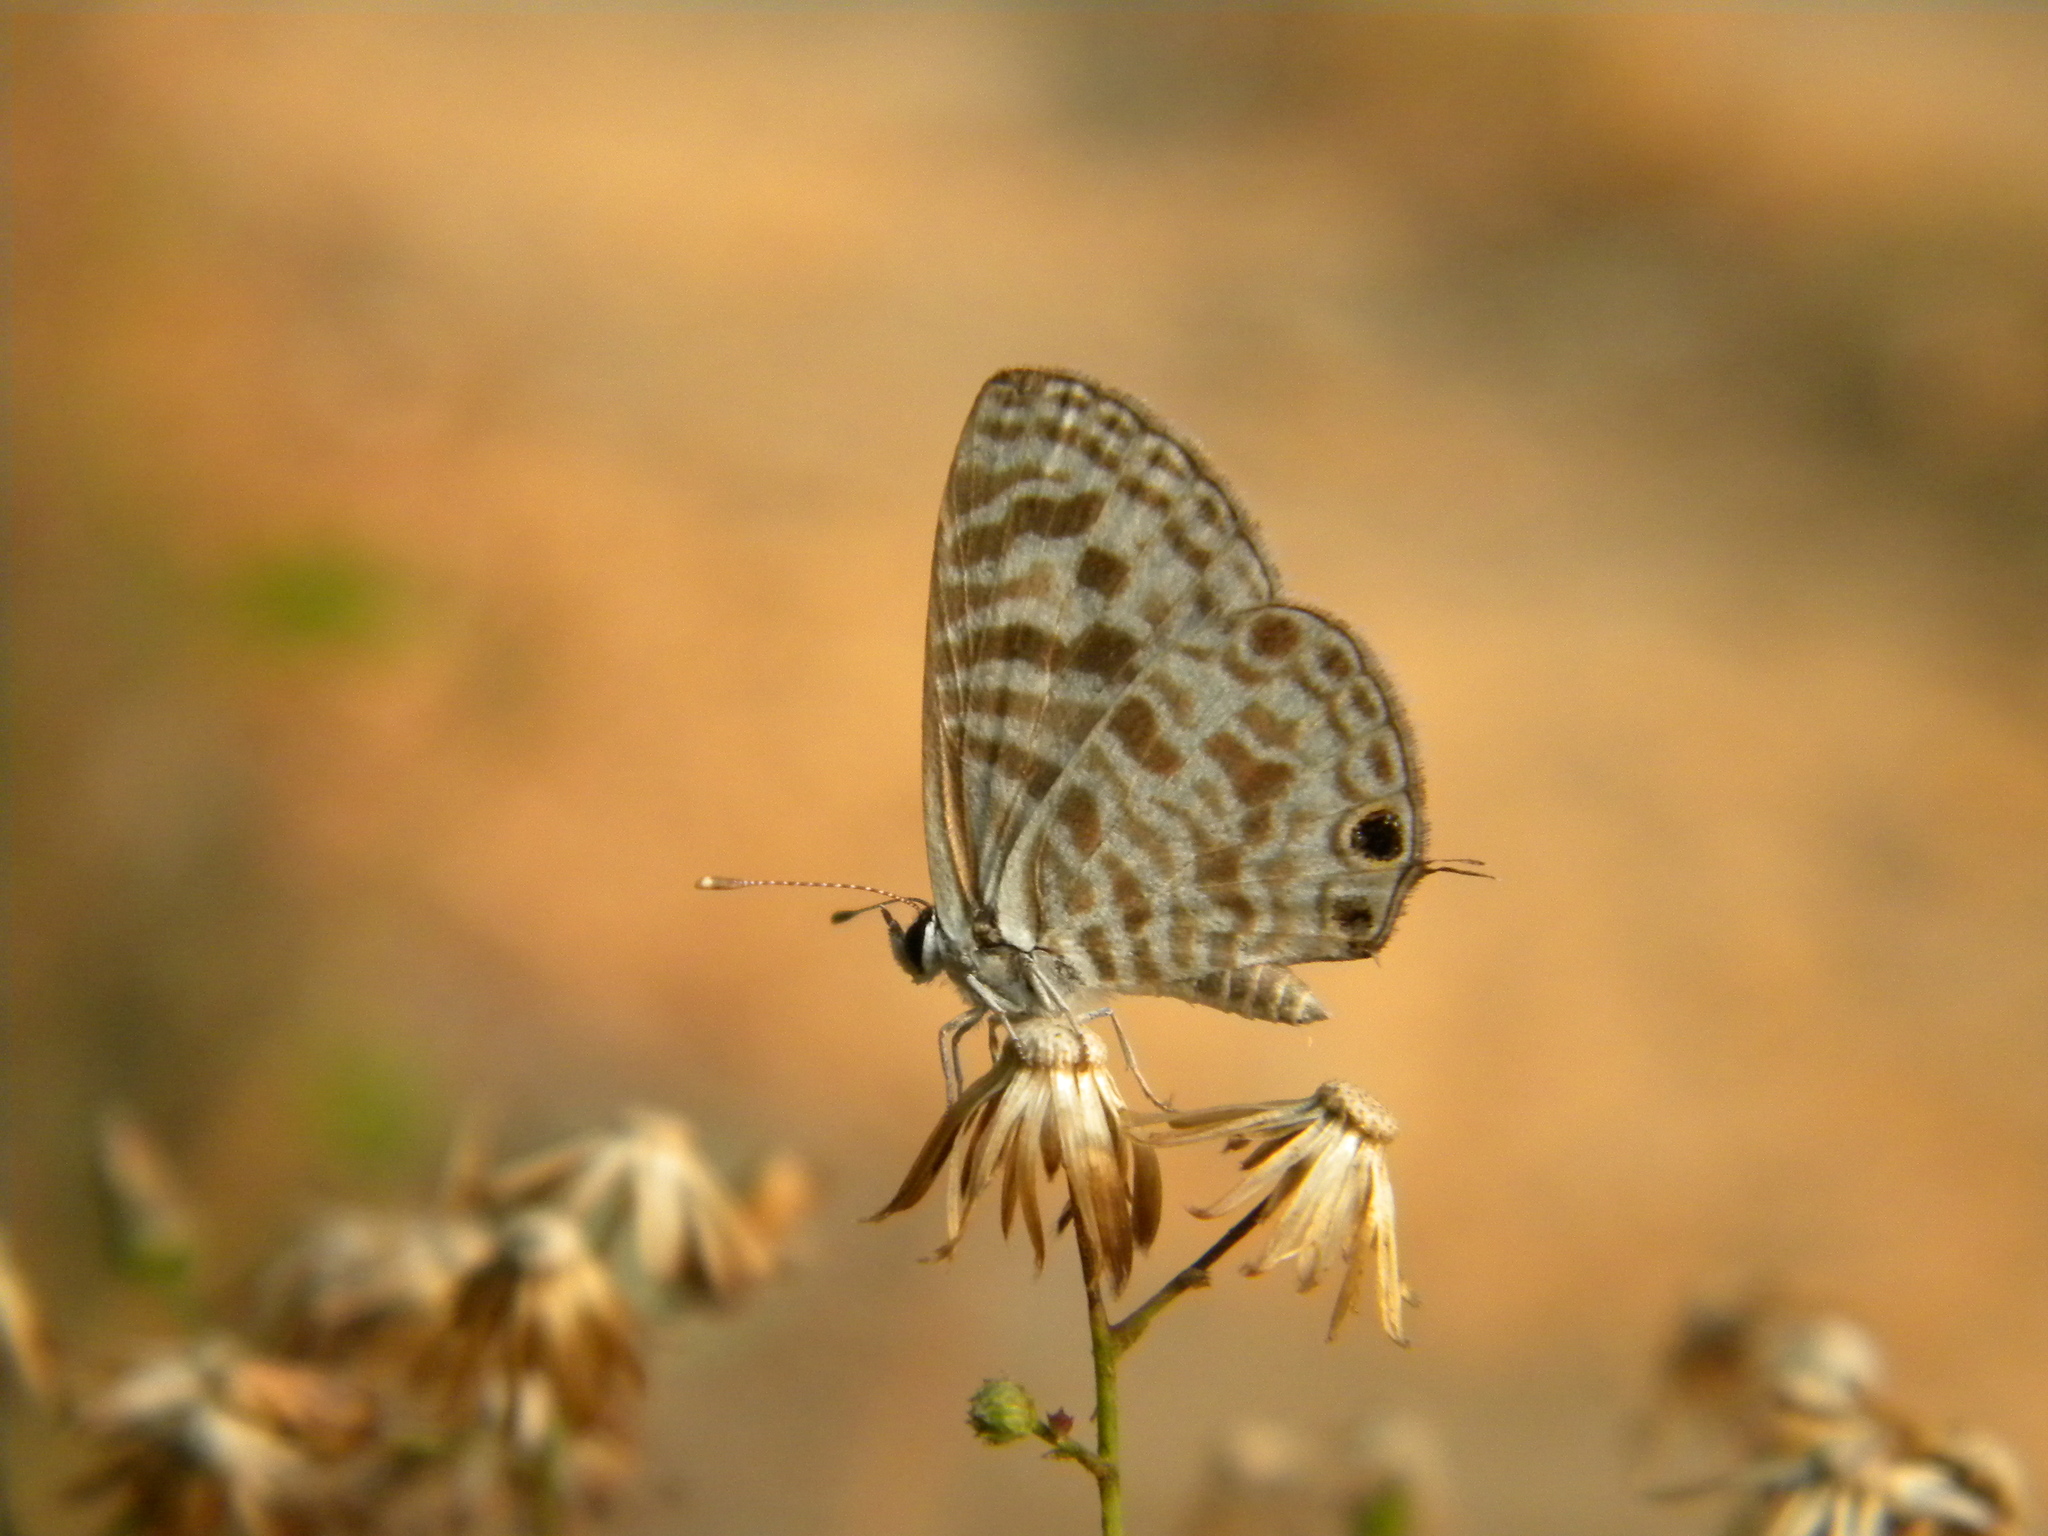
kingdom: Animalia
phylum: Arthropoda
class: Insecta
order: Lepidoptera
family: Lycaenidae
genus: Leptotes
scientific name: Leptotes plinius
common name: Zebra blue
